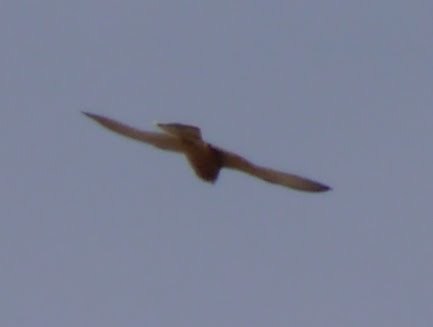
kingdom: Animalia
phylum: Chordata
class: Aves
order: Falconiformes
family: Falconidae
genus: Falco
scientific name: Falco rupicolus
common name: Rock kestrel
